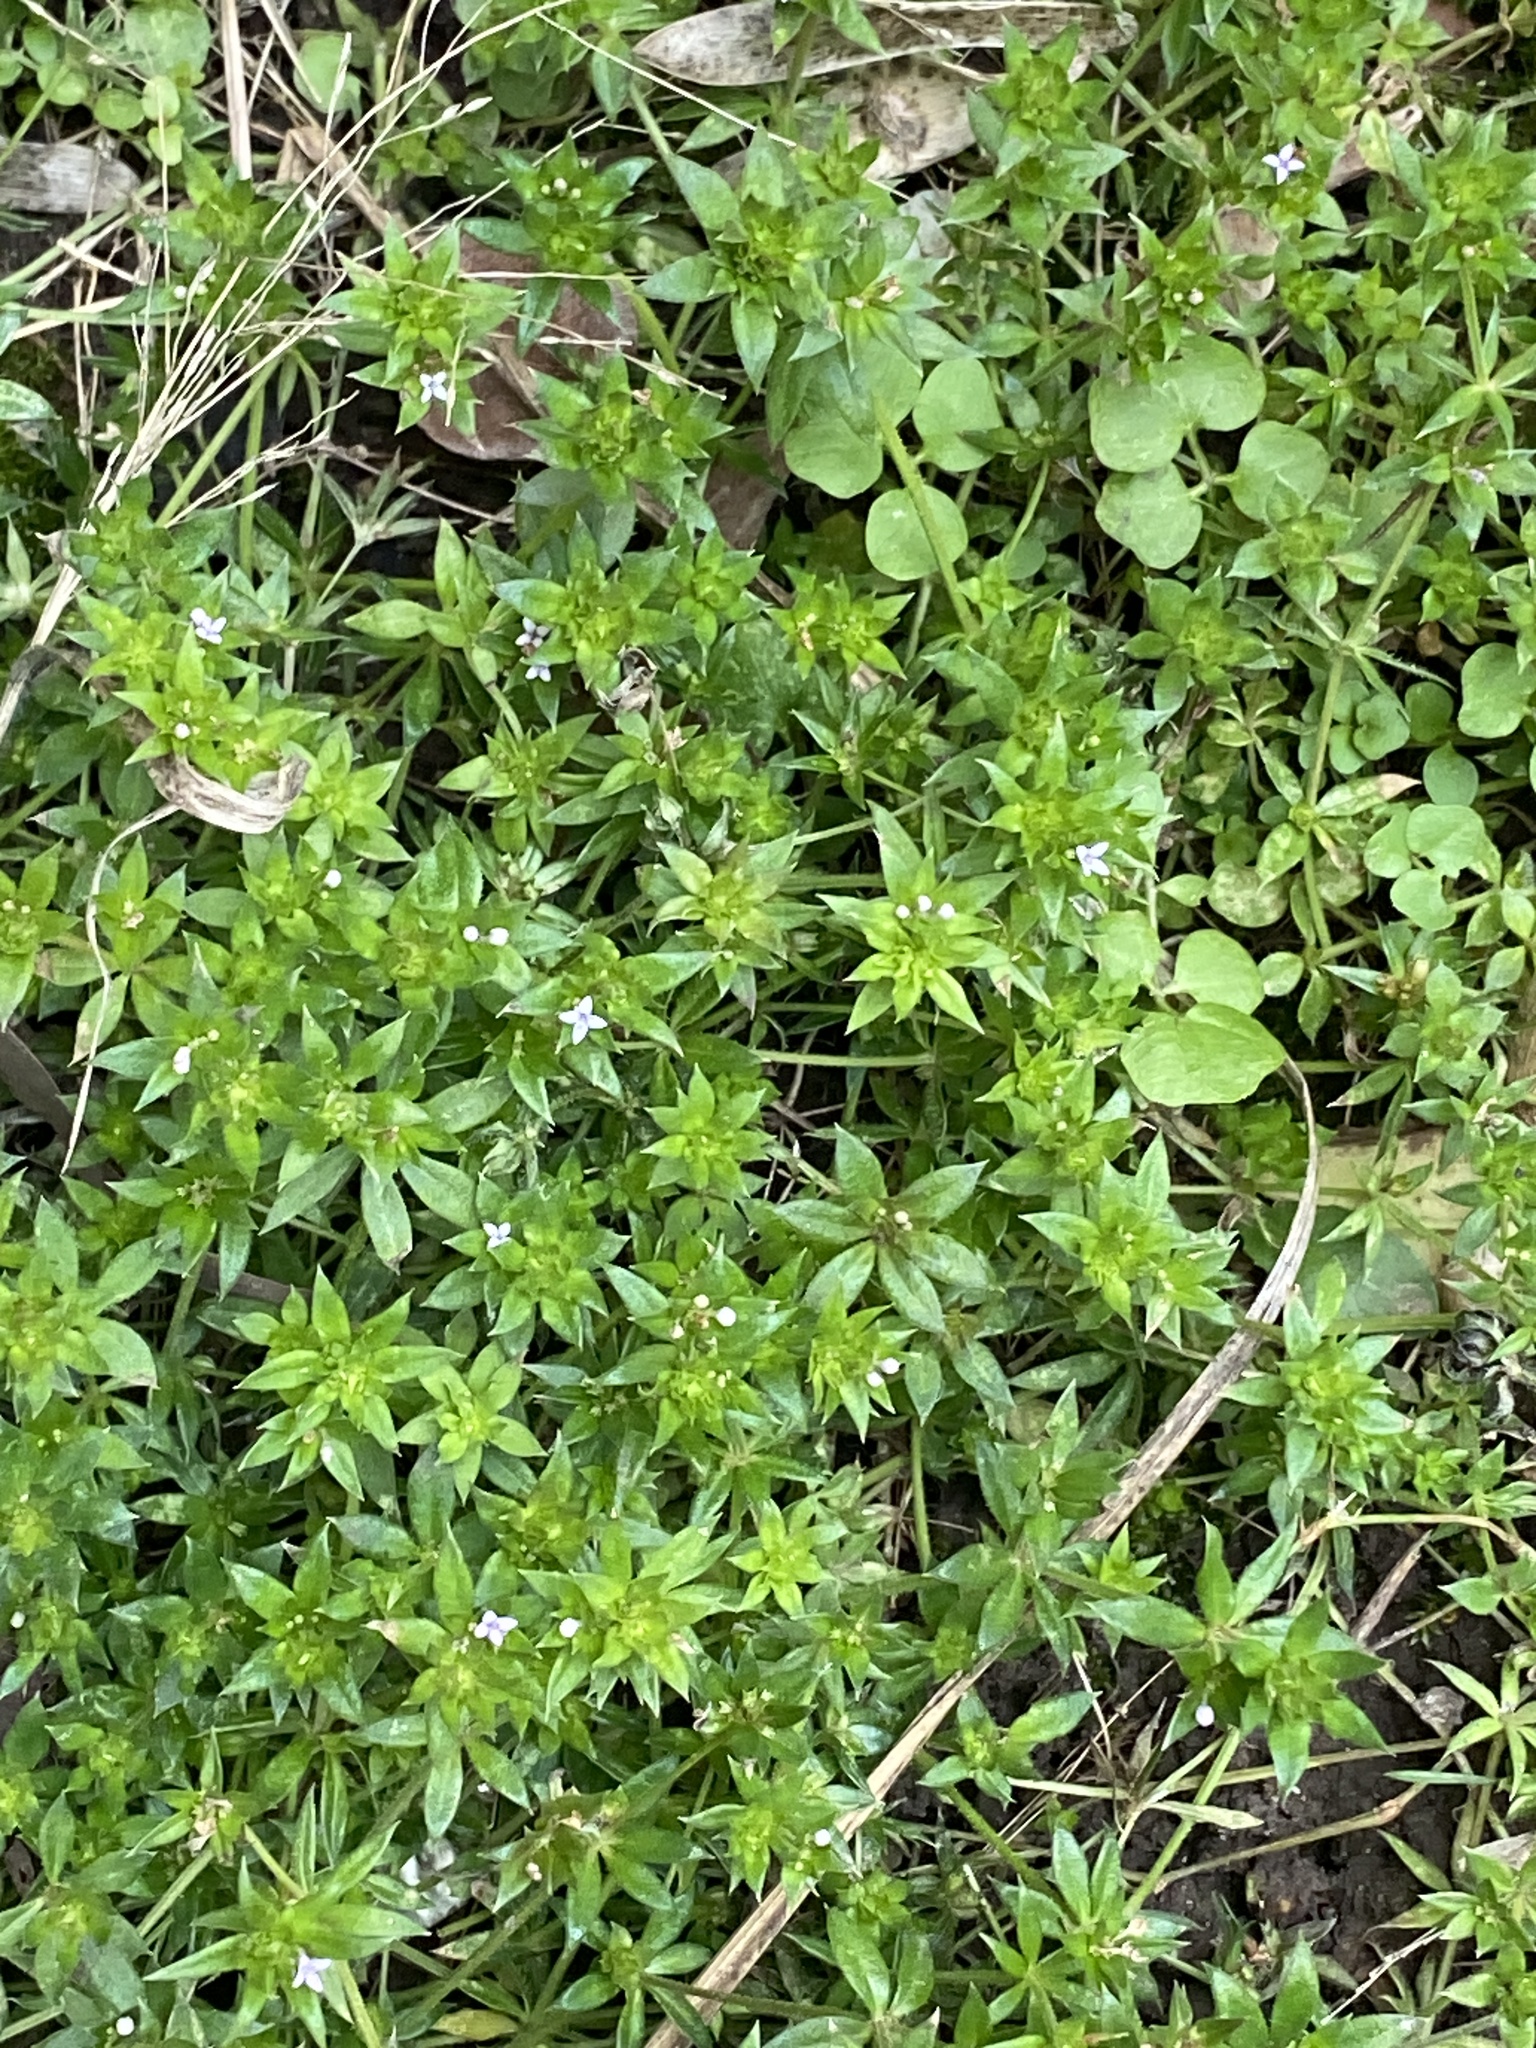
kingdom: Plantae
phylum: Tracheophyta
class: Magnoliopsida
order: Gentianales
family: Rubiaceae
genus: Sherardia
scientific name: Sherardia arvensis
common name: Field madder
